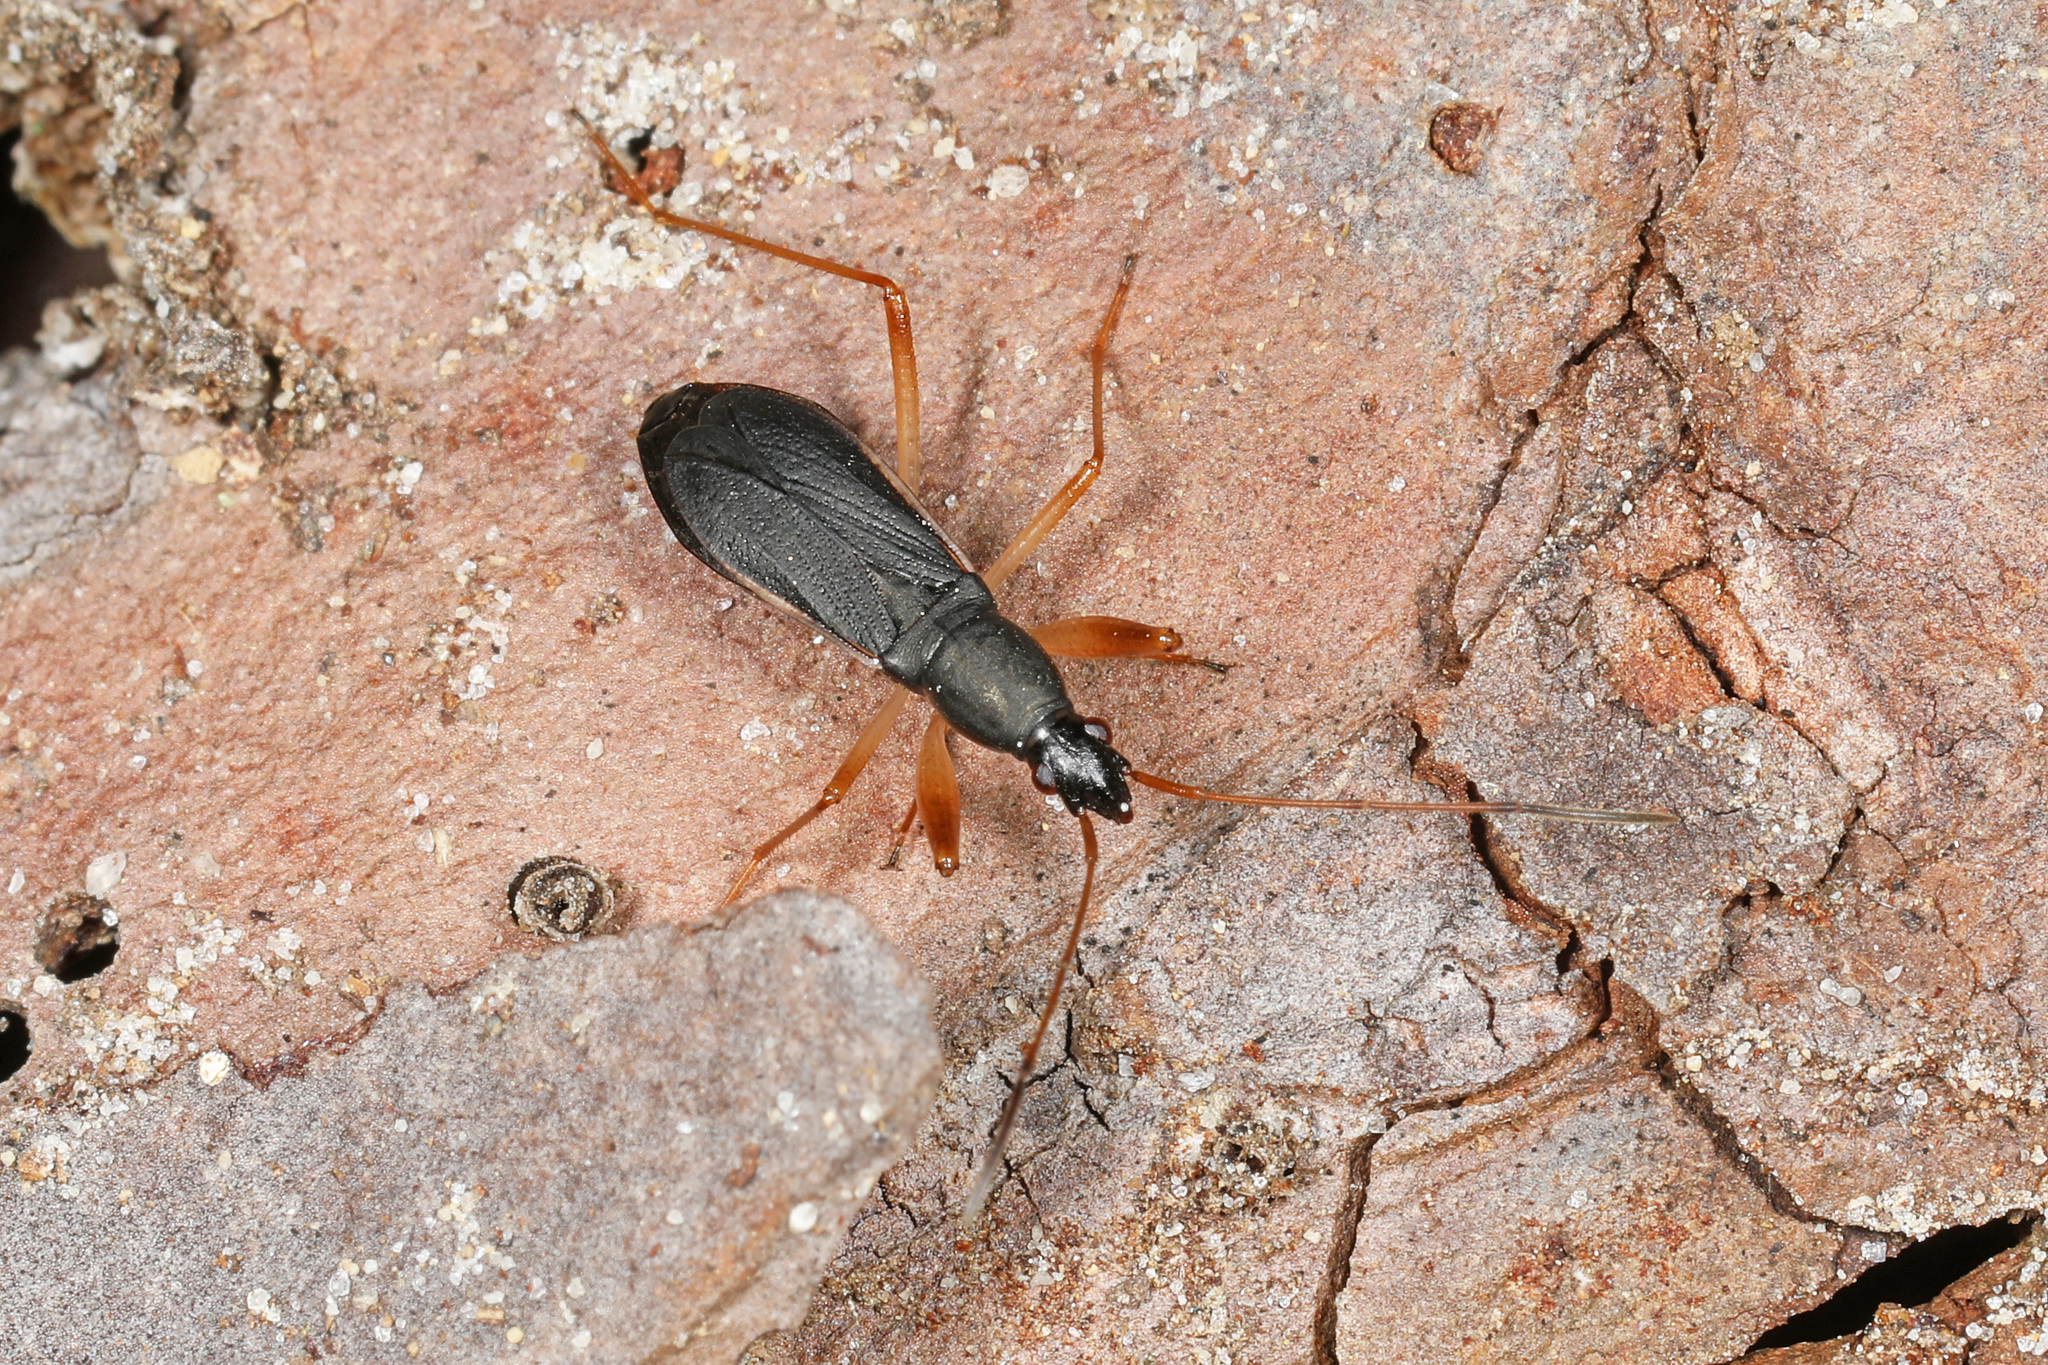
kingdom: Animalia
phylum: Arthropoda
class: Insecta
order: Hemiptera
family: Rhyparochromidae
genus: Cnemodus
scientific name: Cnemodus mavortius
